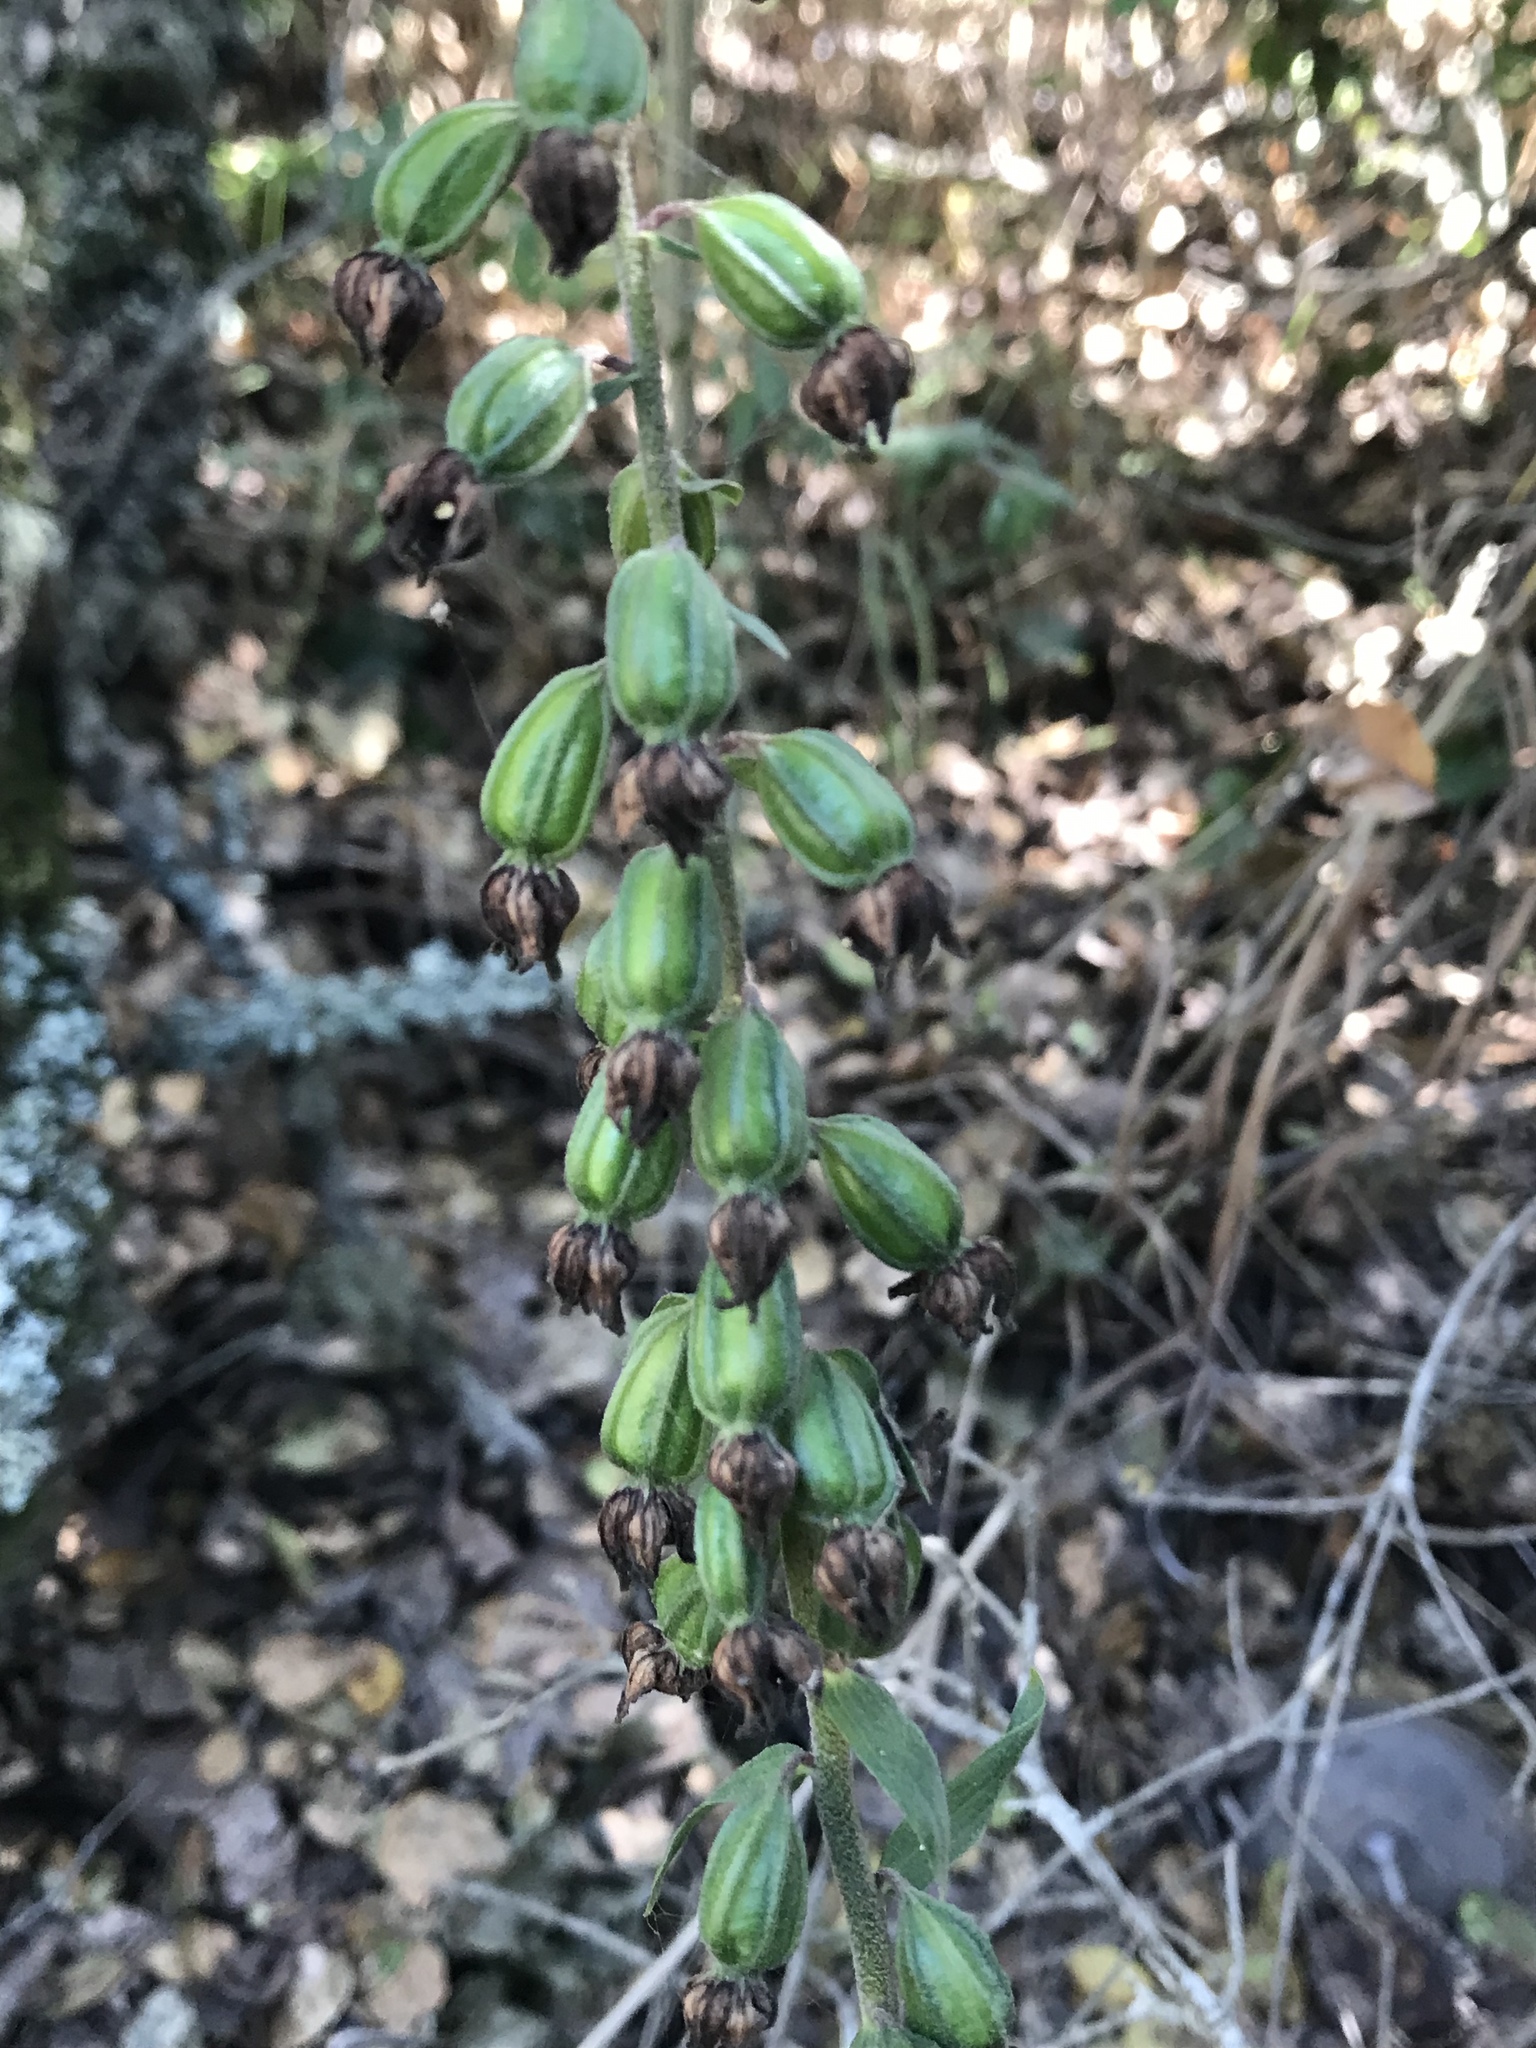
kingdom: Plantae
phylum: Tracheophyta
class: Liliopsida
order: Asparagales
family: Orchidaceae
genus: Epipactis
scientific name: Epipactis helleborine
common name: Broad-leaved helleborine
